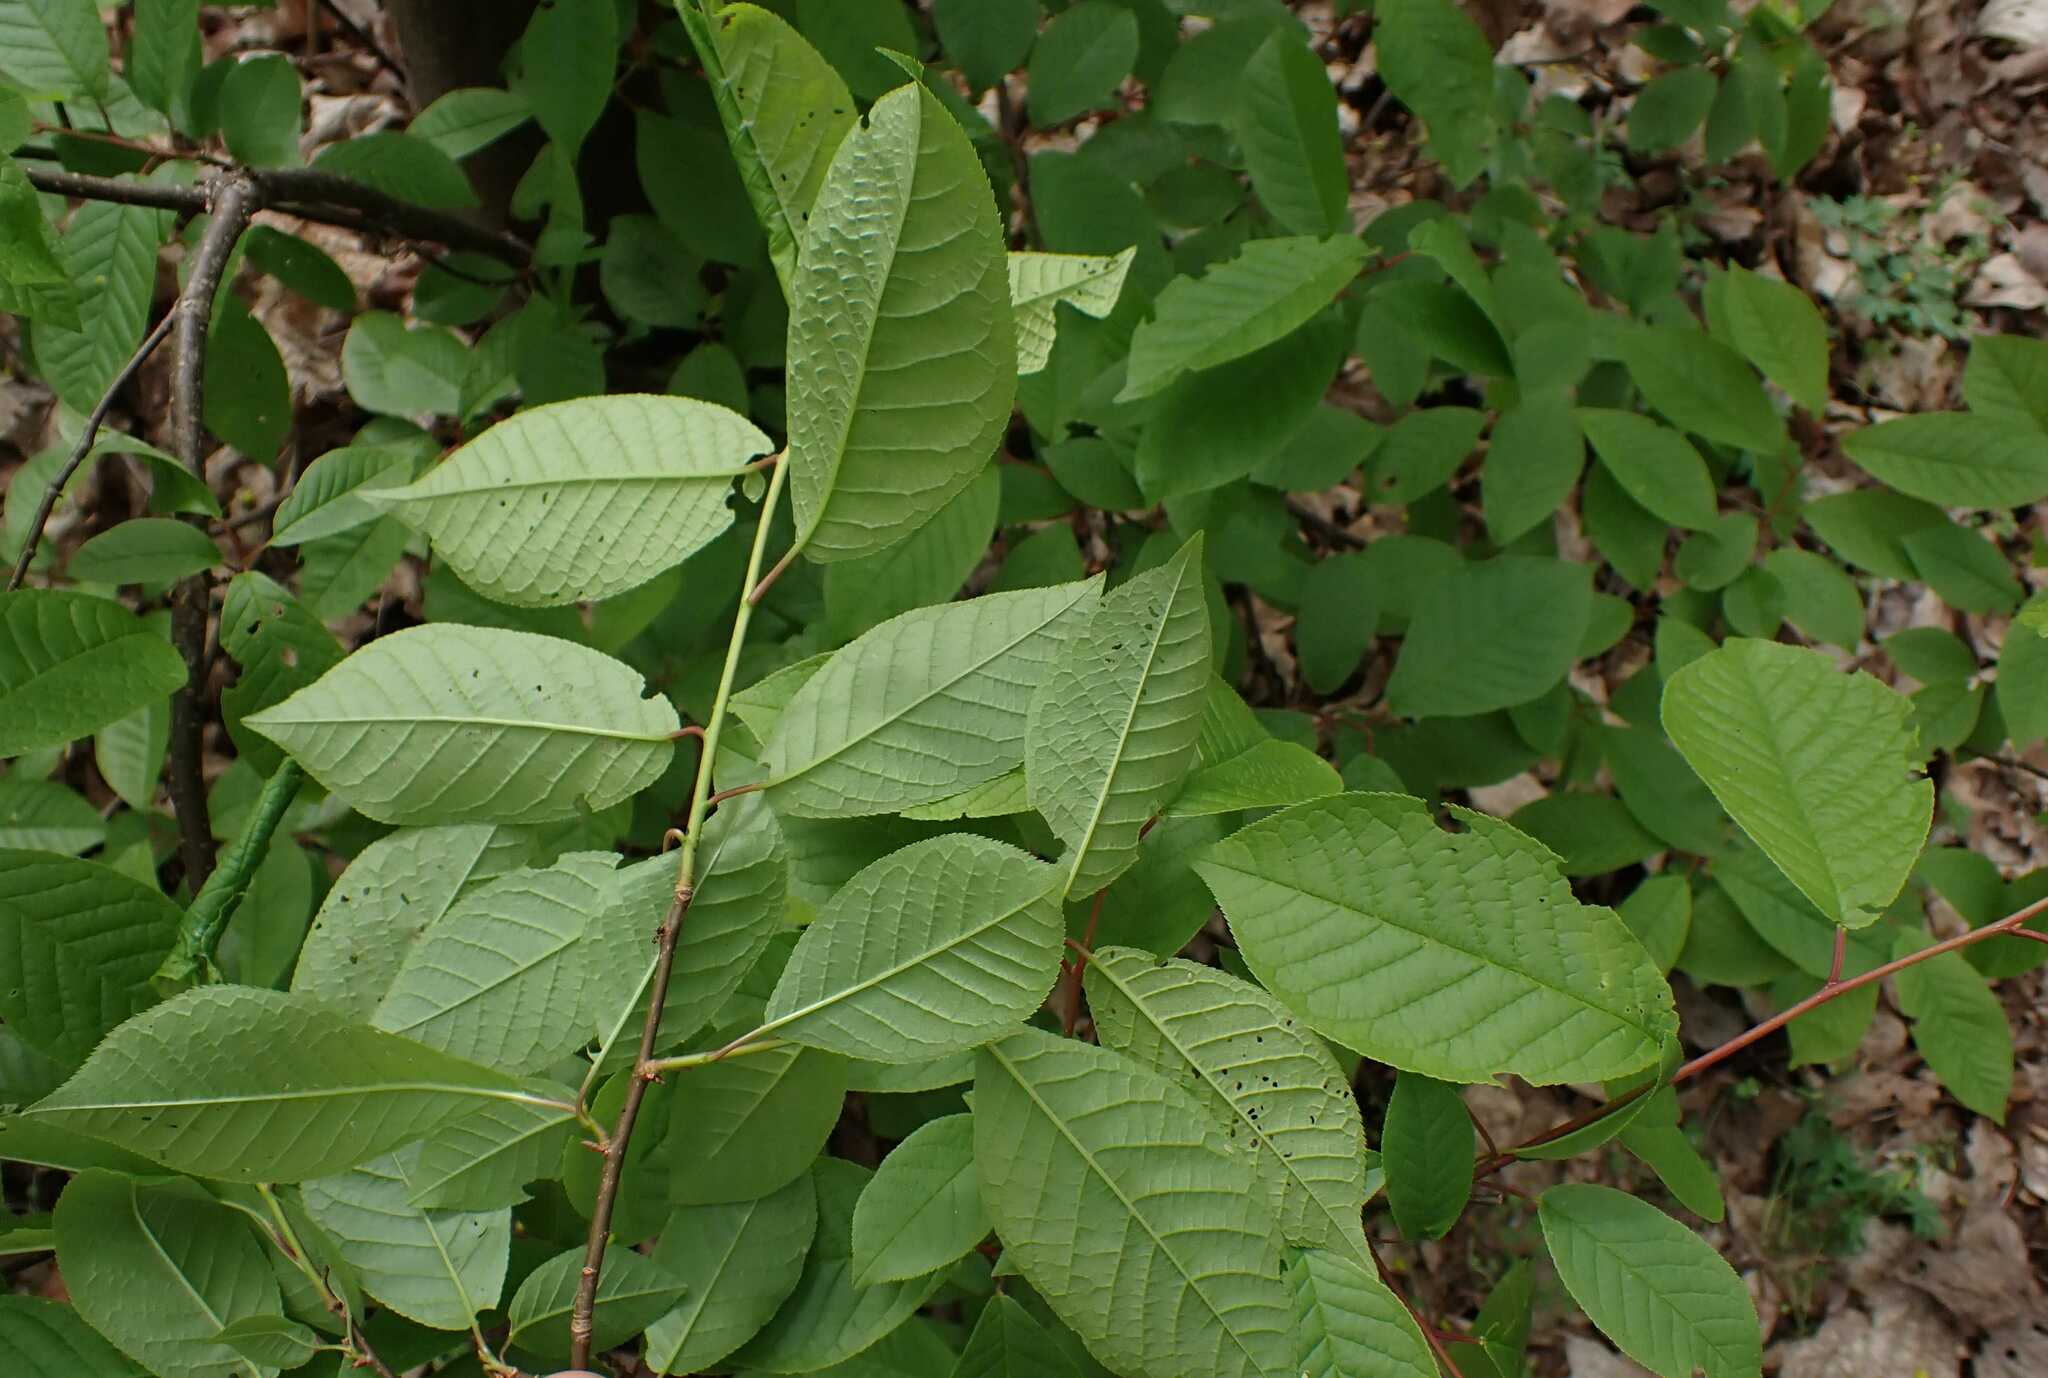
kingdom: Plantae
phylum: Tracheophyta
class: Magnoliopsida
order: Rosales
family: Rosaceae
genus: Prunus
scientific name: Prunus padus
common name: Bird cherry
